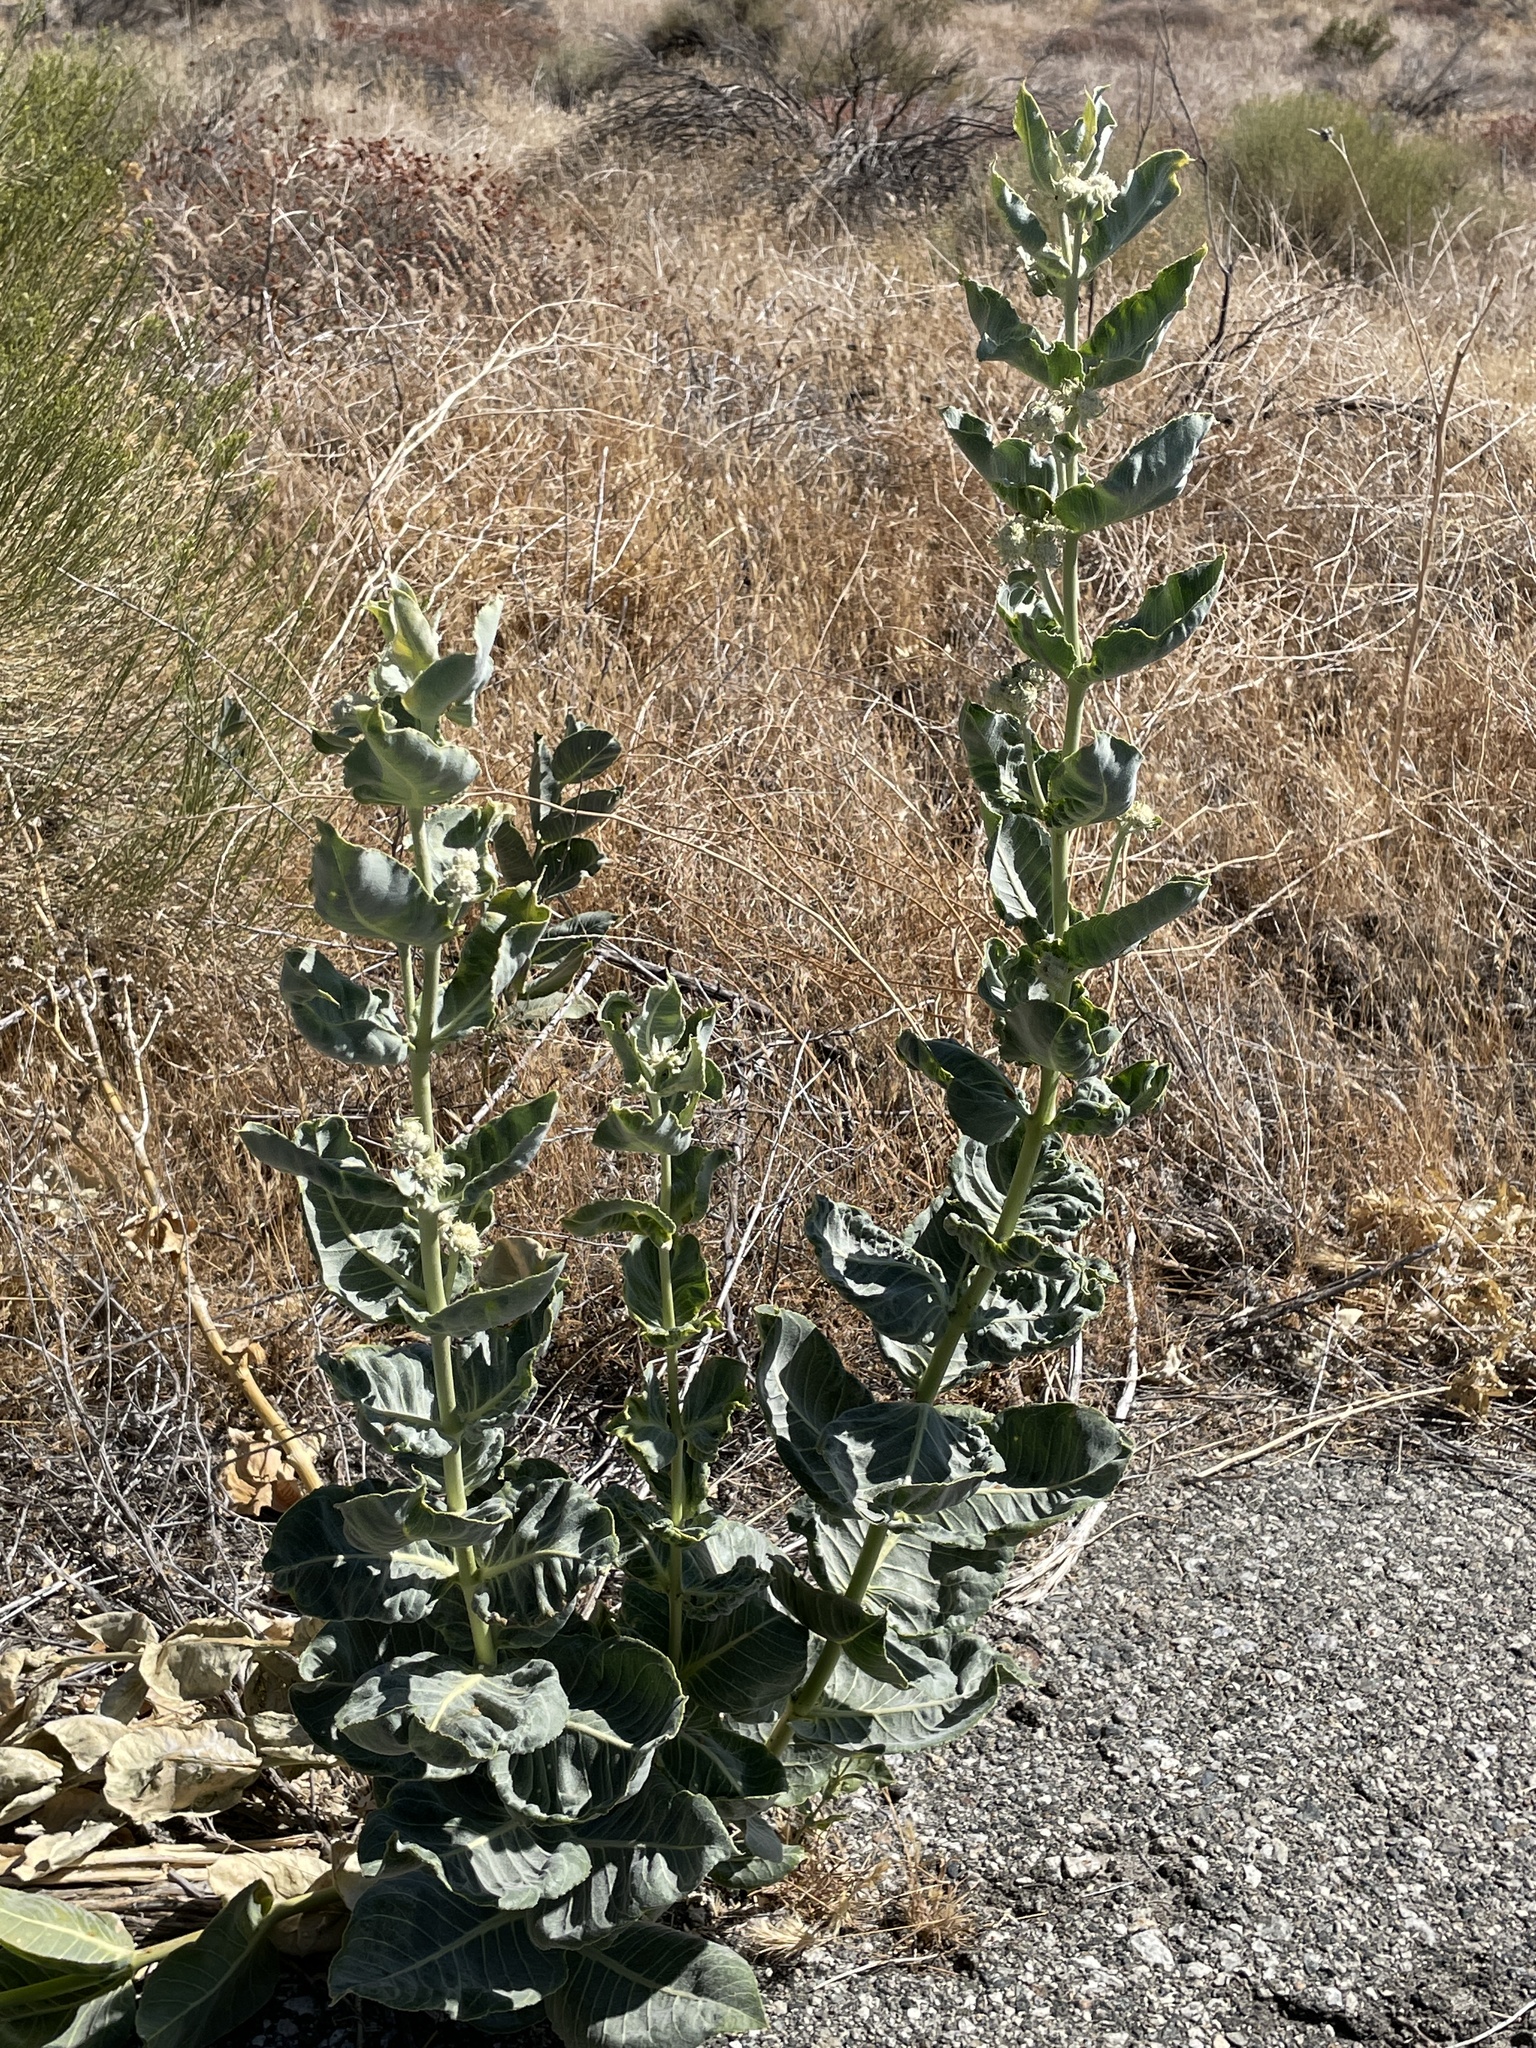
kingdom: Plantae
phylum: Tracheophyta
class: Magnoliopsida
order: Gentianales
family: Apocynaceae
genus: Asclepias
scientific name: Asclepias erosa
